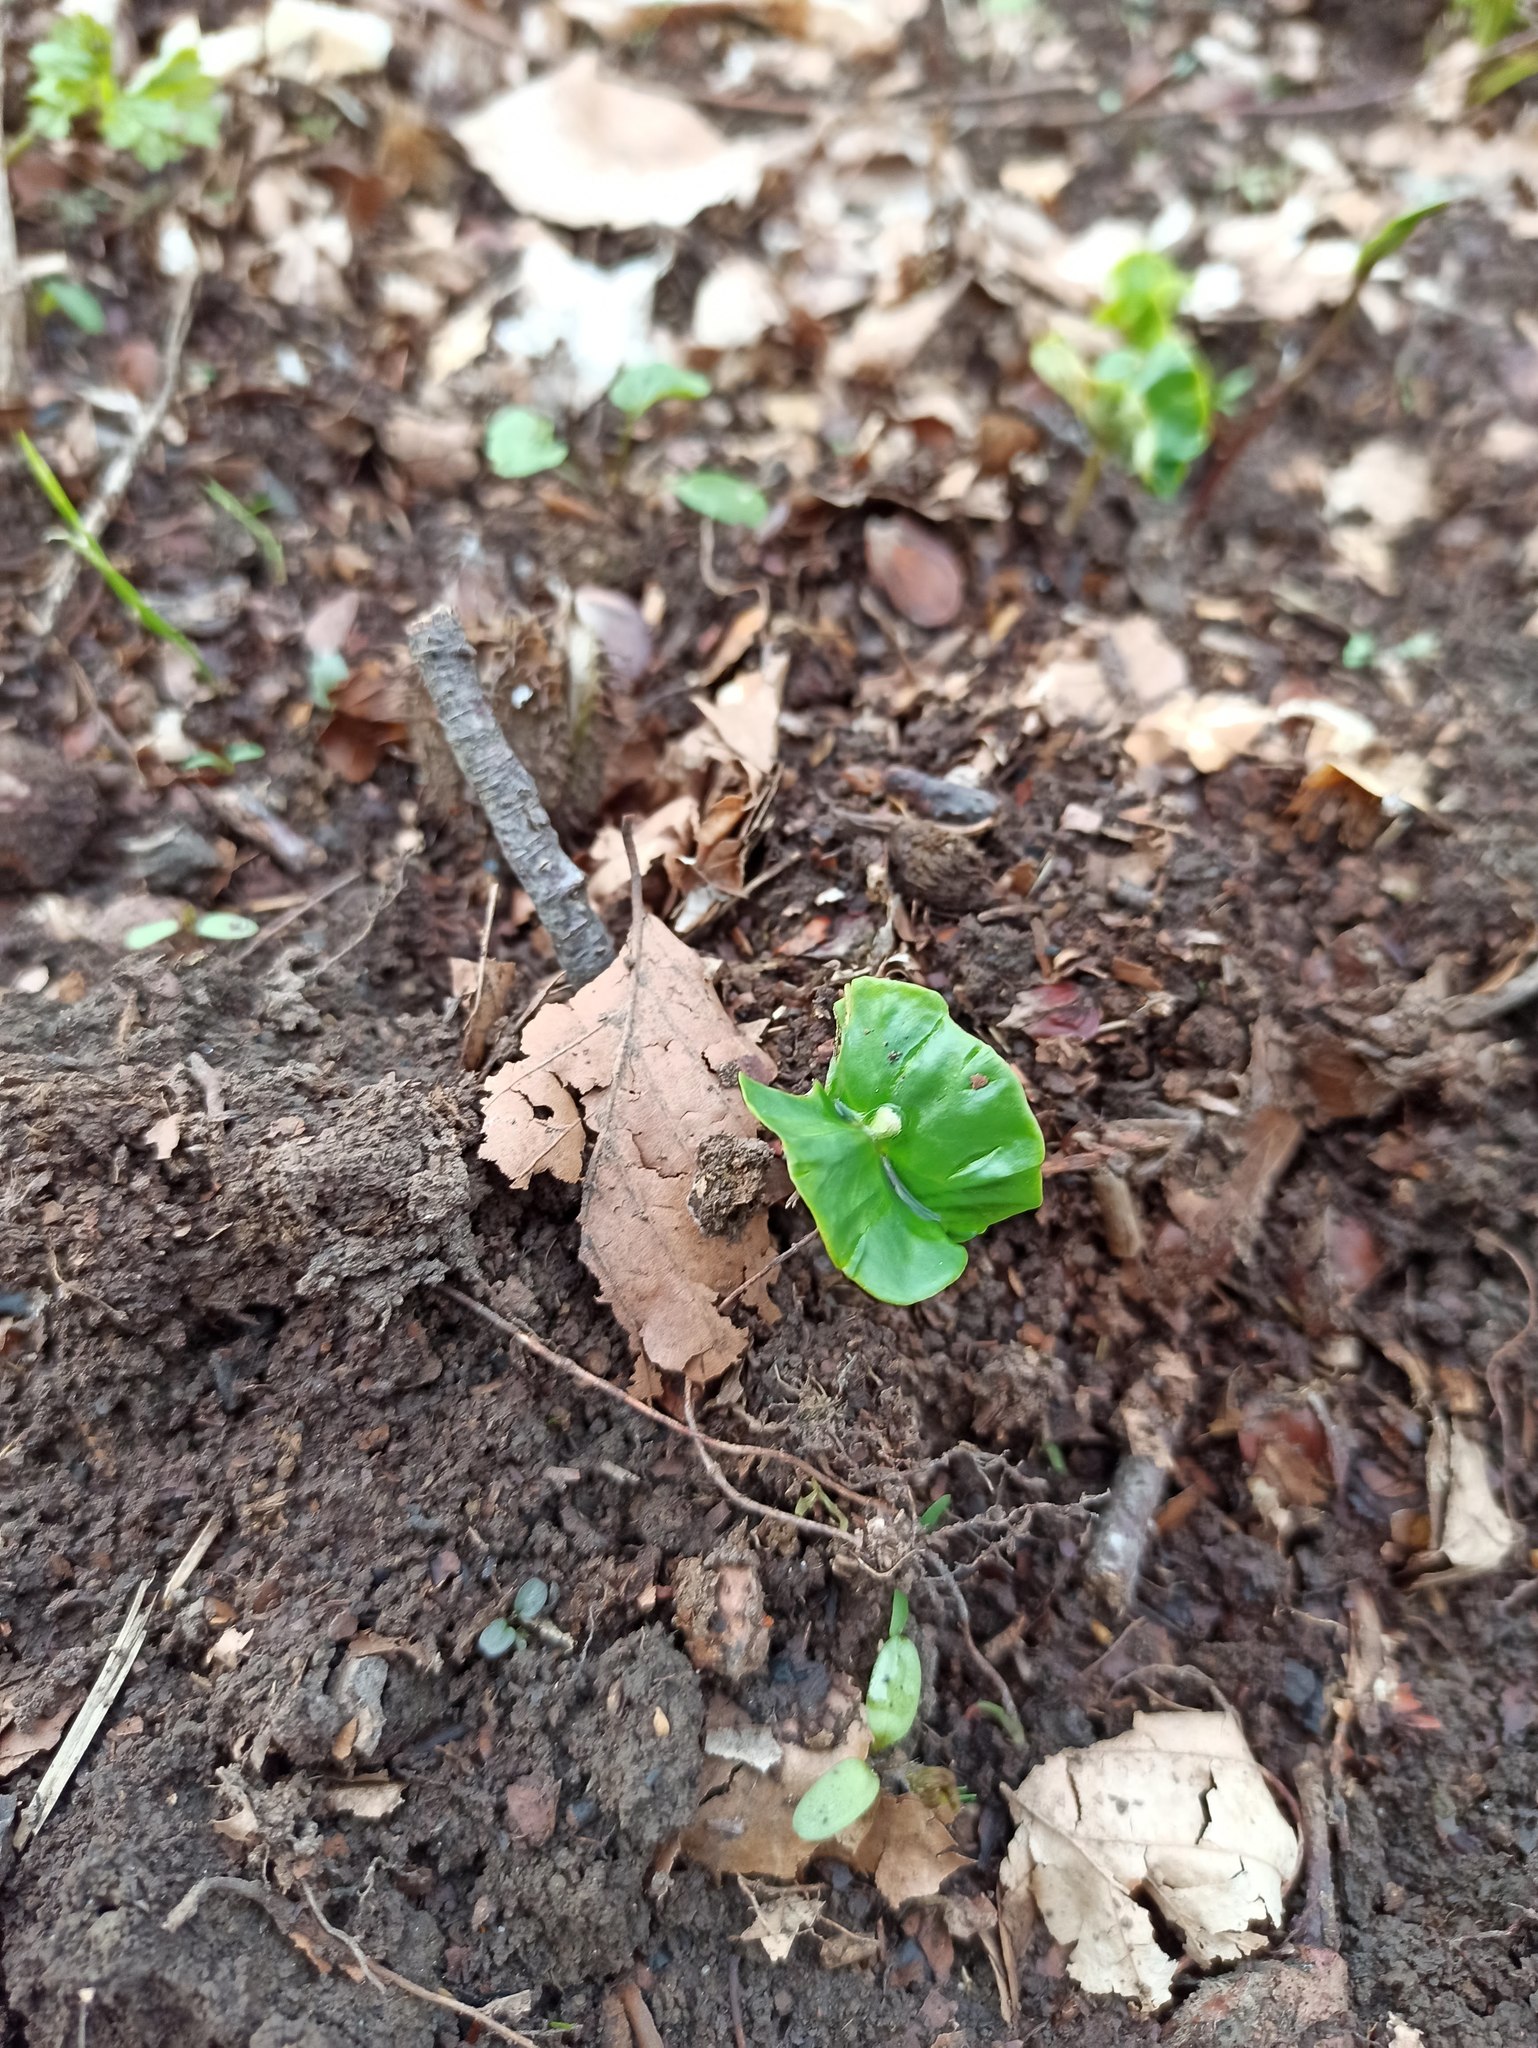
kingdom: Plantae
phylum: Tracheophyta
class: Magnoliopsida
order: Fagales
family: Fagaceae
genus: Fagus
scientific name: Fagus sylvatica
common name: Beech
